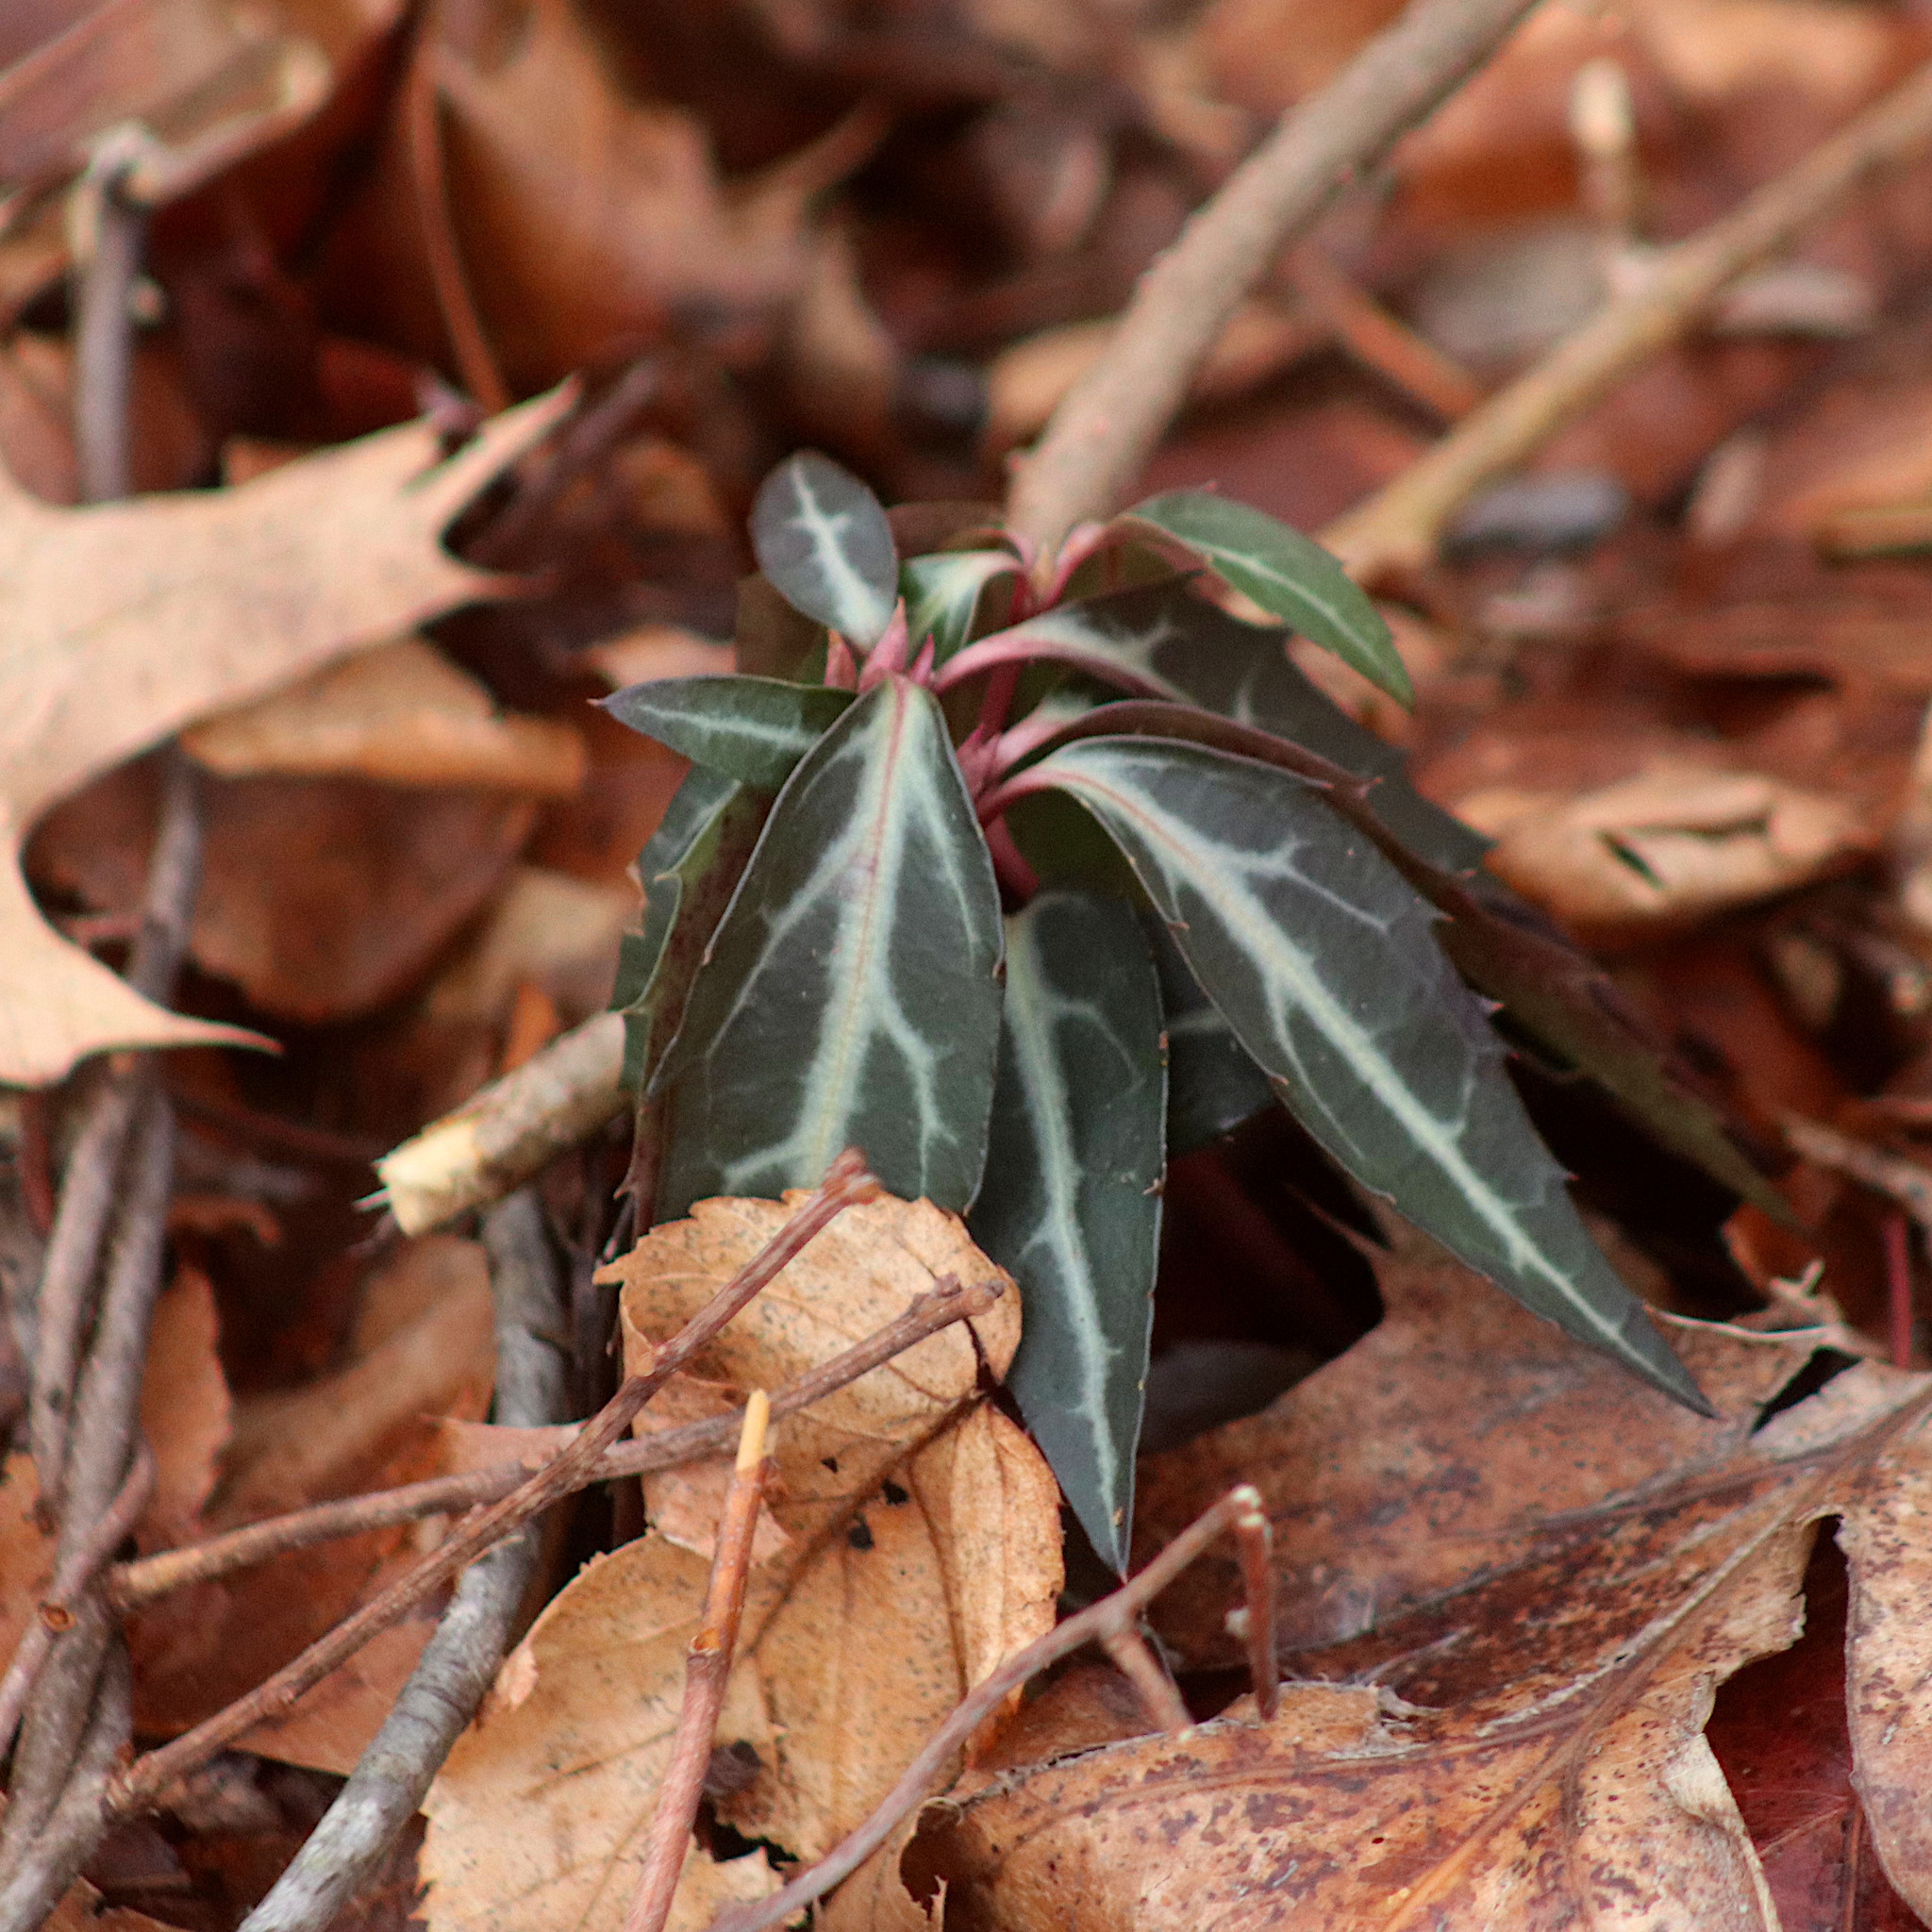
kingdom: Plantae
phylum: Tracheophyta
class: Magnoliopsida
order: Ericales
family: Ericaceae
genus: Chimaphila
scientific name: Chimaphila maculata
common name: Spotted pipsissewa
